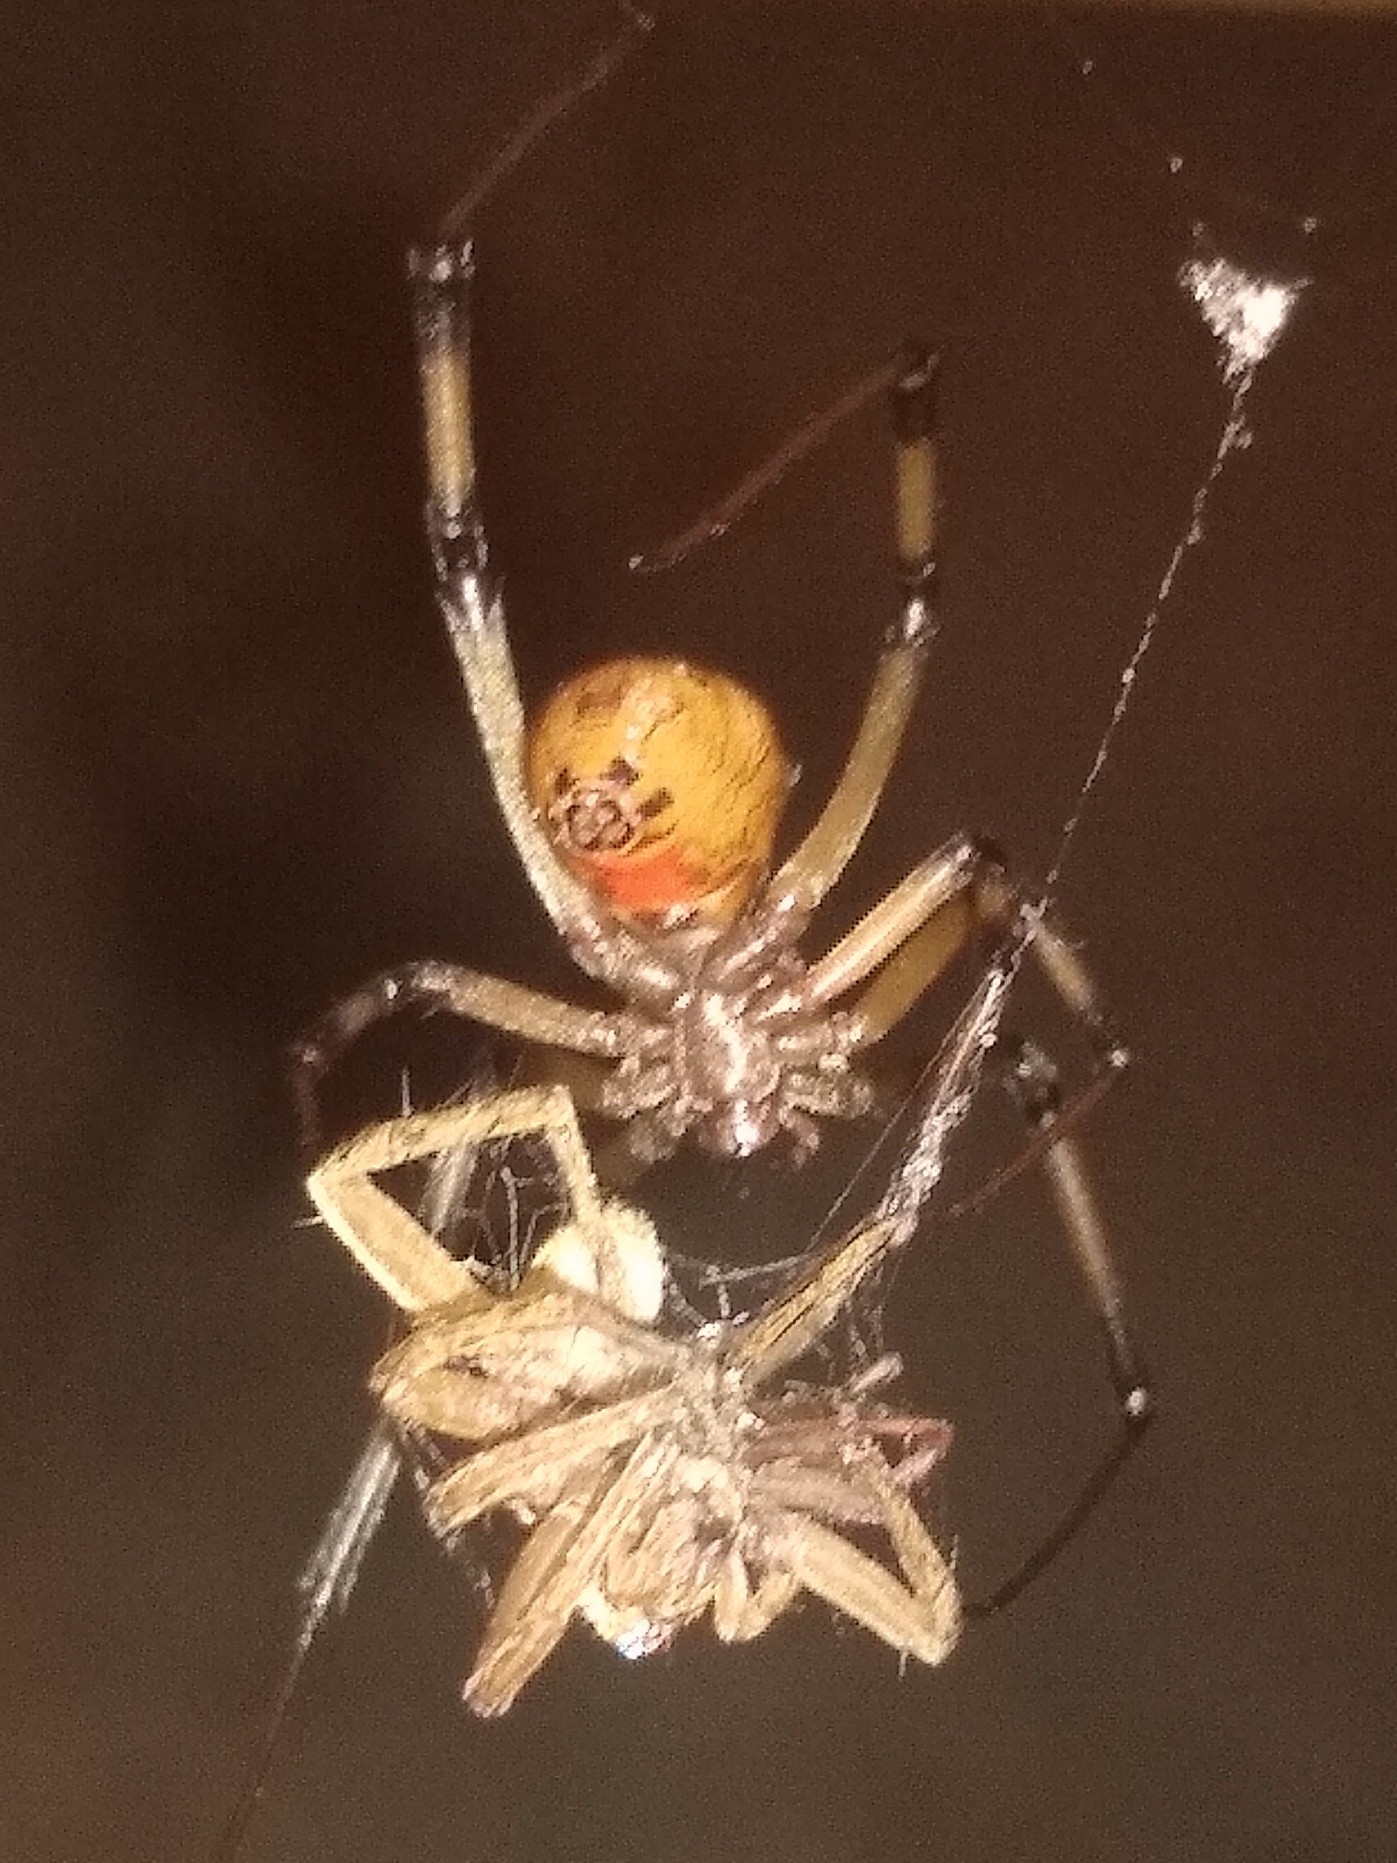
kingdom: Animalia
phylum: Arthropoda
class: Arachnida
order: Araneae
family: Theridiidae
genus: Latrodectus
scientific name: Latrodectus geometricus
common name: Brown widow spider
